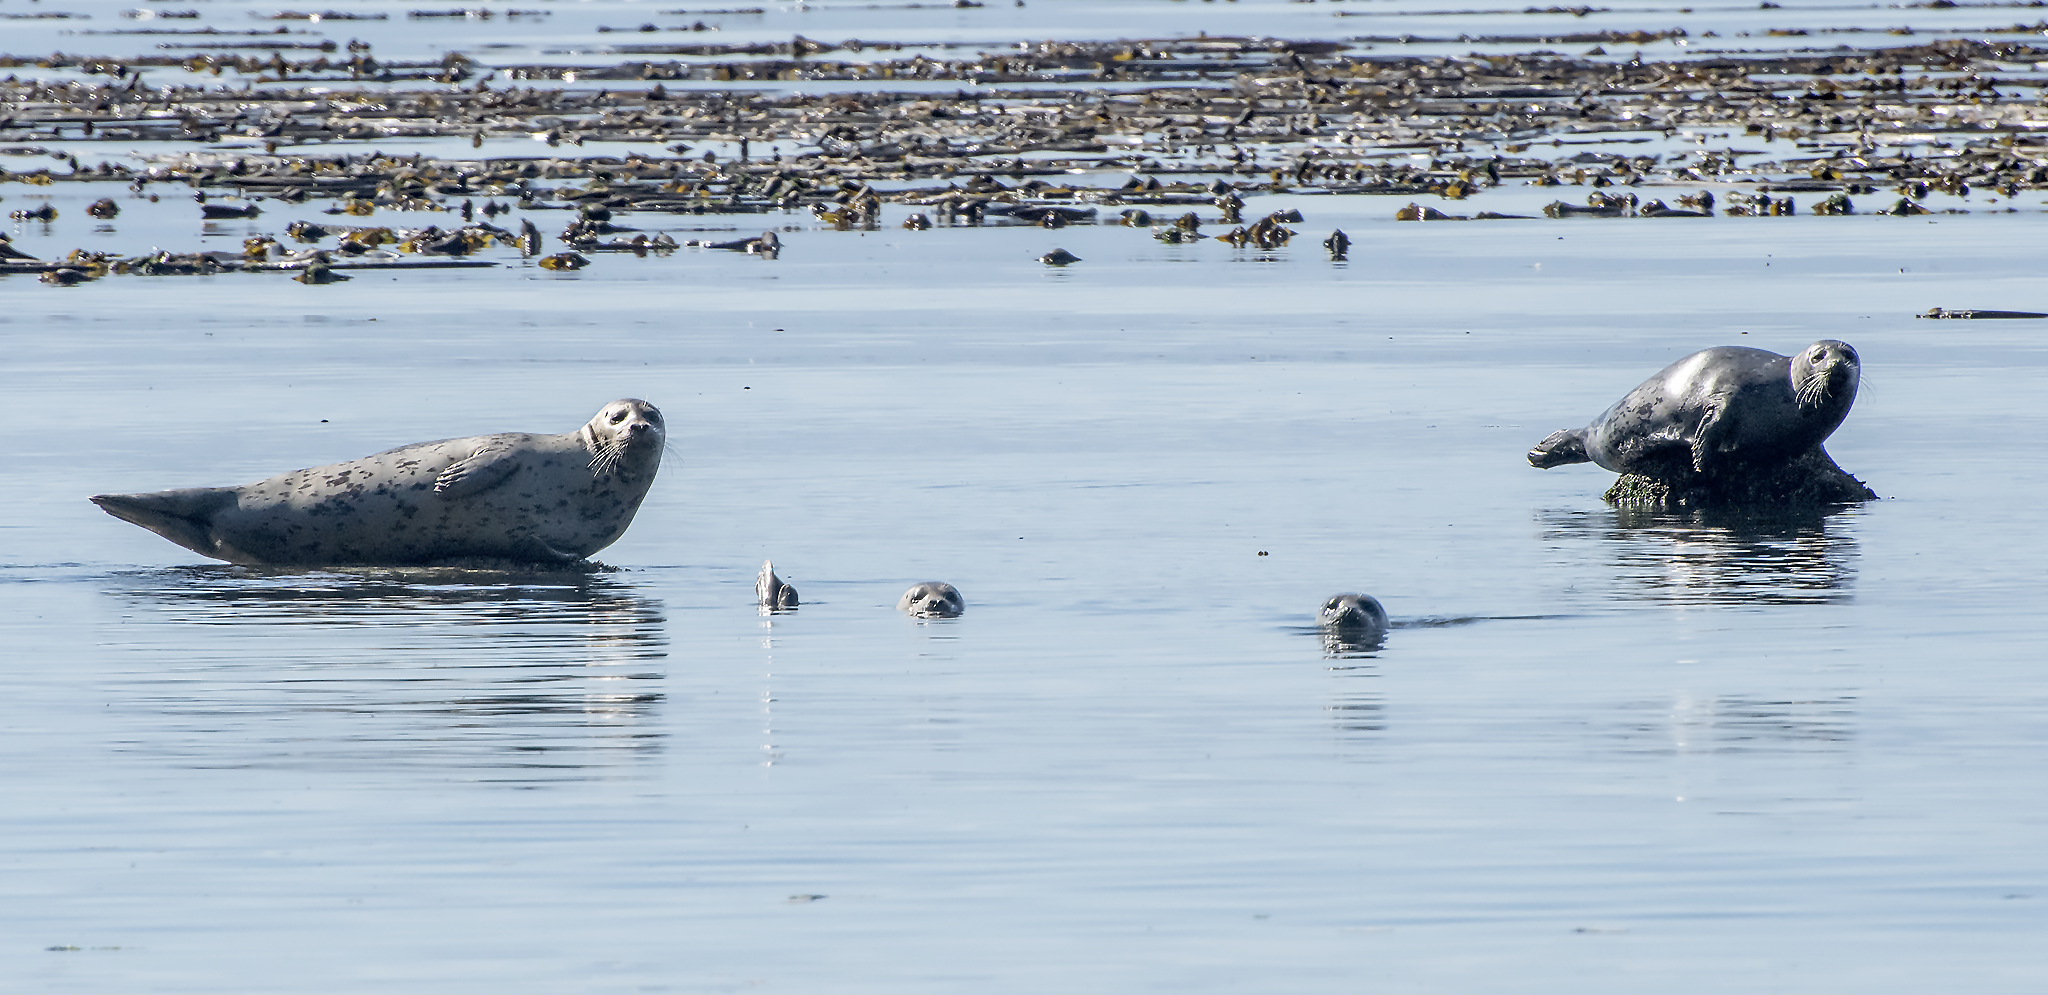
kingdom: Animalia
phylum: Chordata
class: Mammalia
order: Carnivora
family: Phocidae
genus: Phoca
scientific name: Phoca vitulina
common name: Harbor seal
